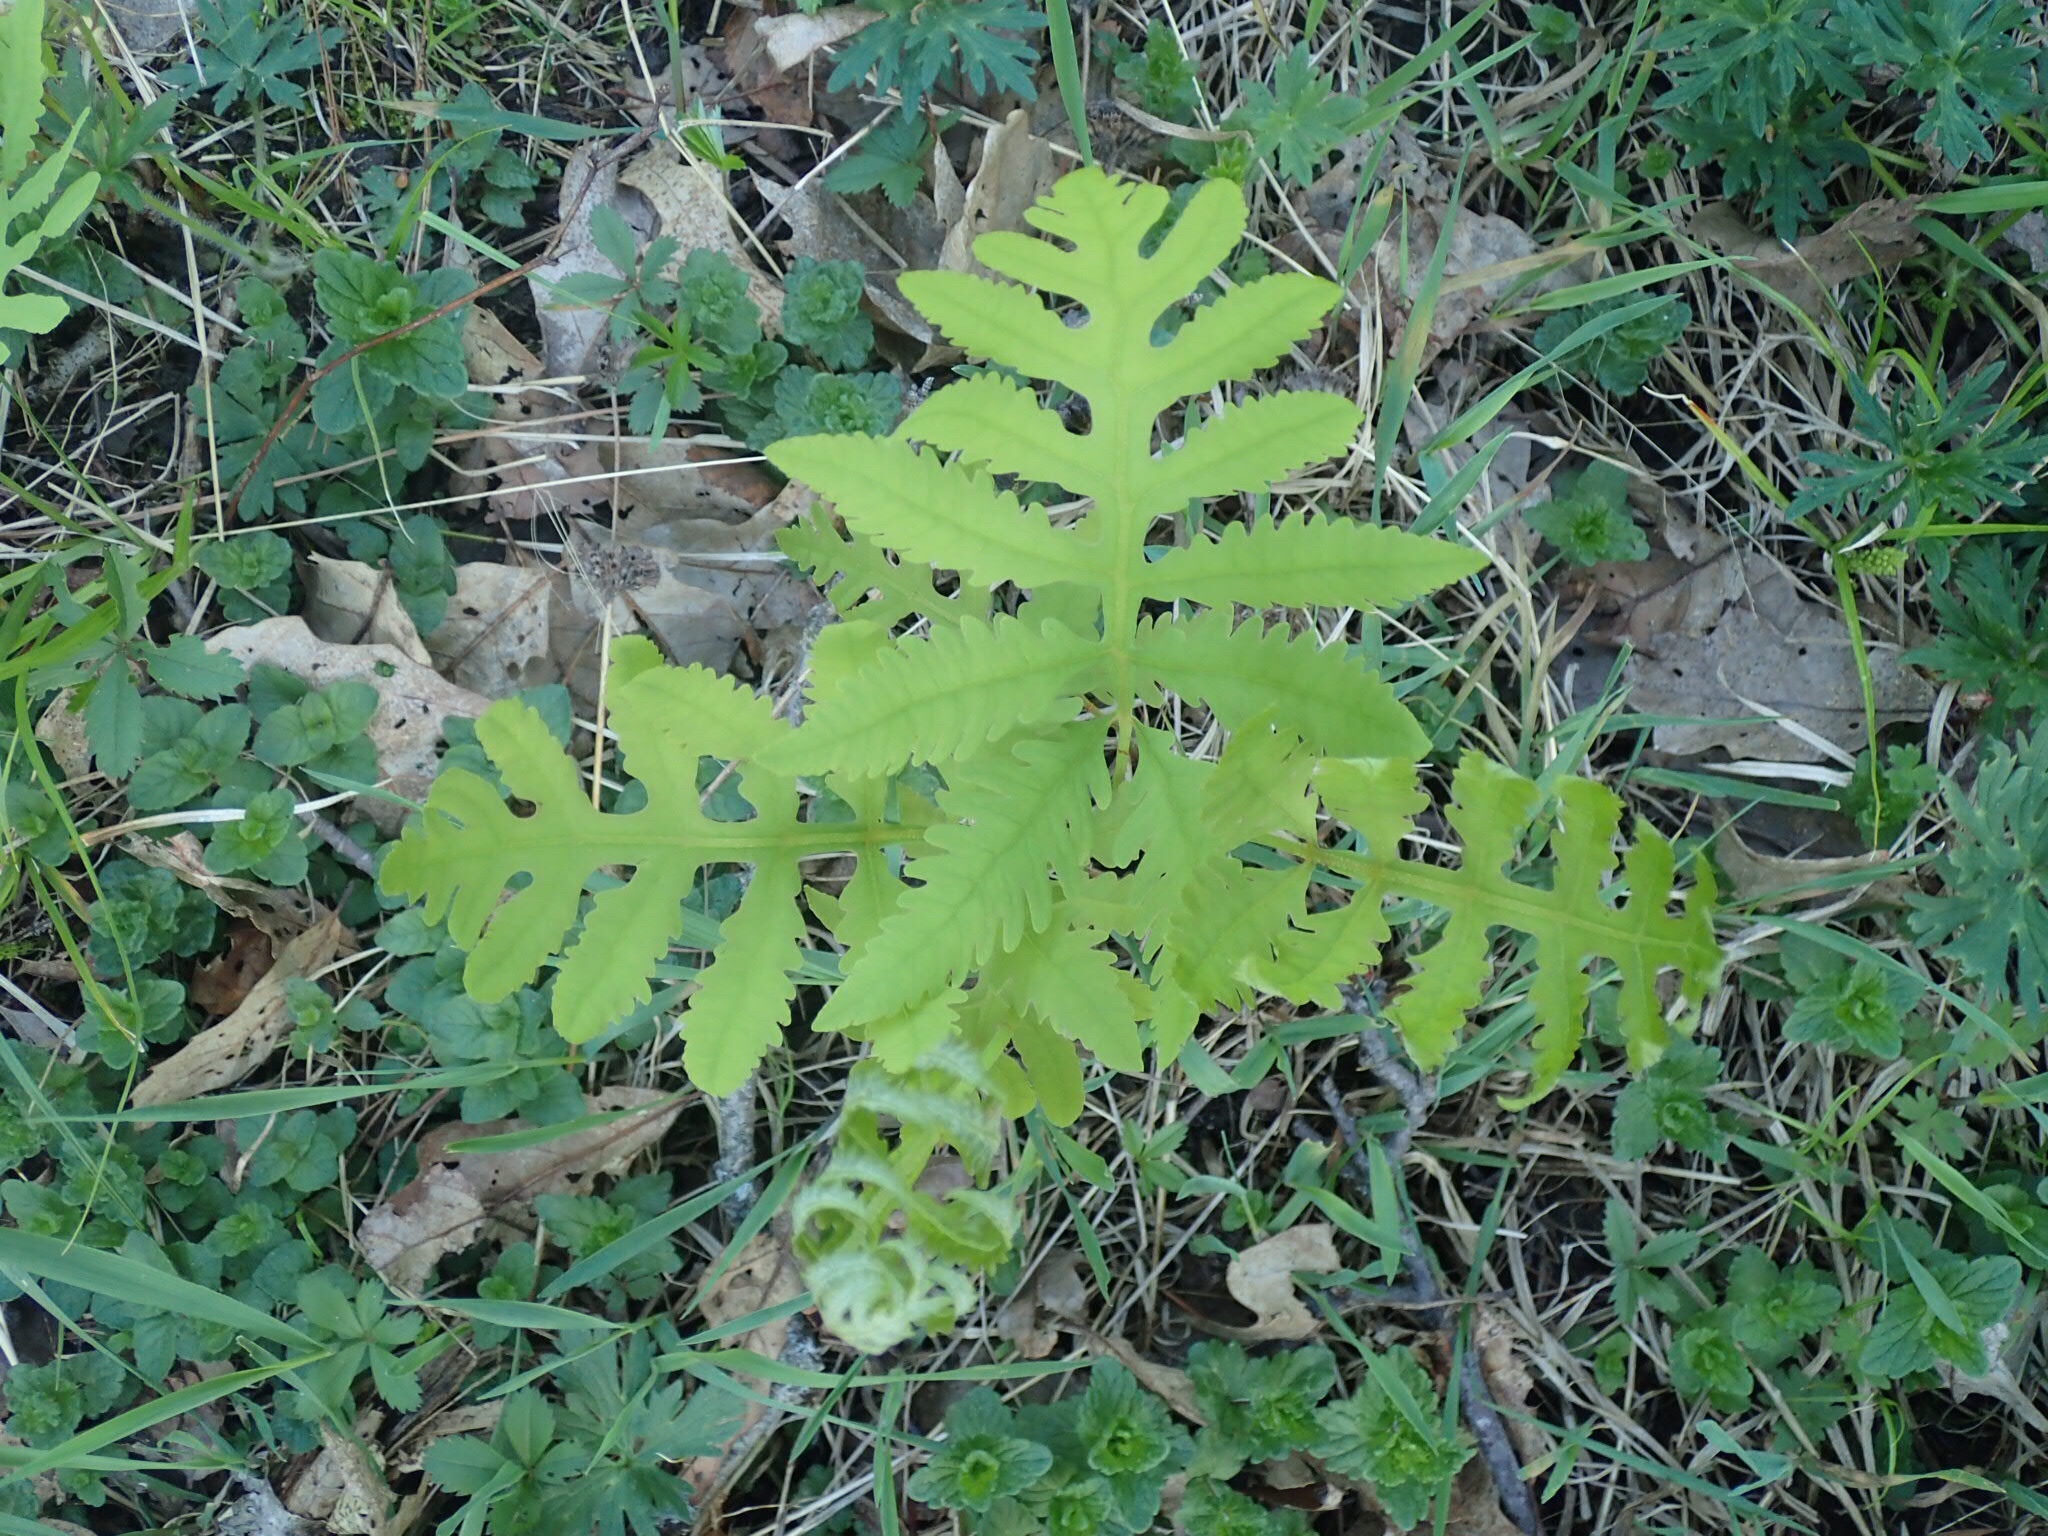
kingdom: Plantae
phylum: Tracheophyta
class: Polypodiopsida
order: Polypodiales
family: Onocleaceae
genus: Onoclea
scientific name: Onoclea sensibilis
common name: Sensitive fern
